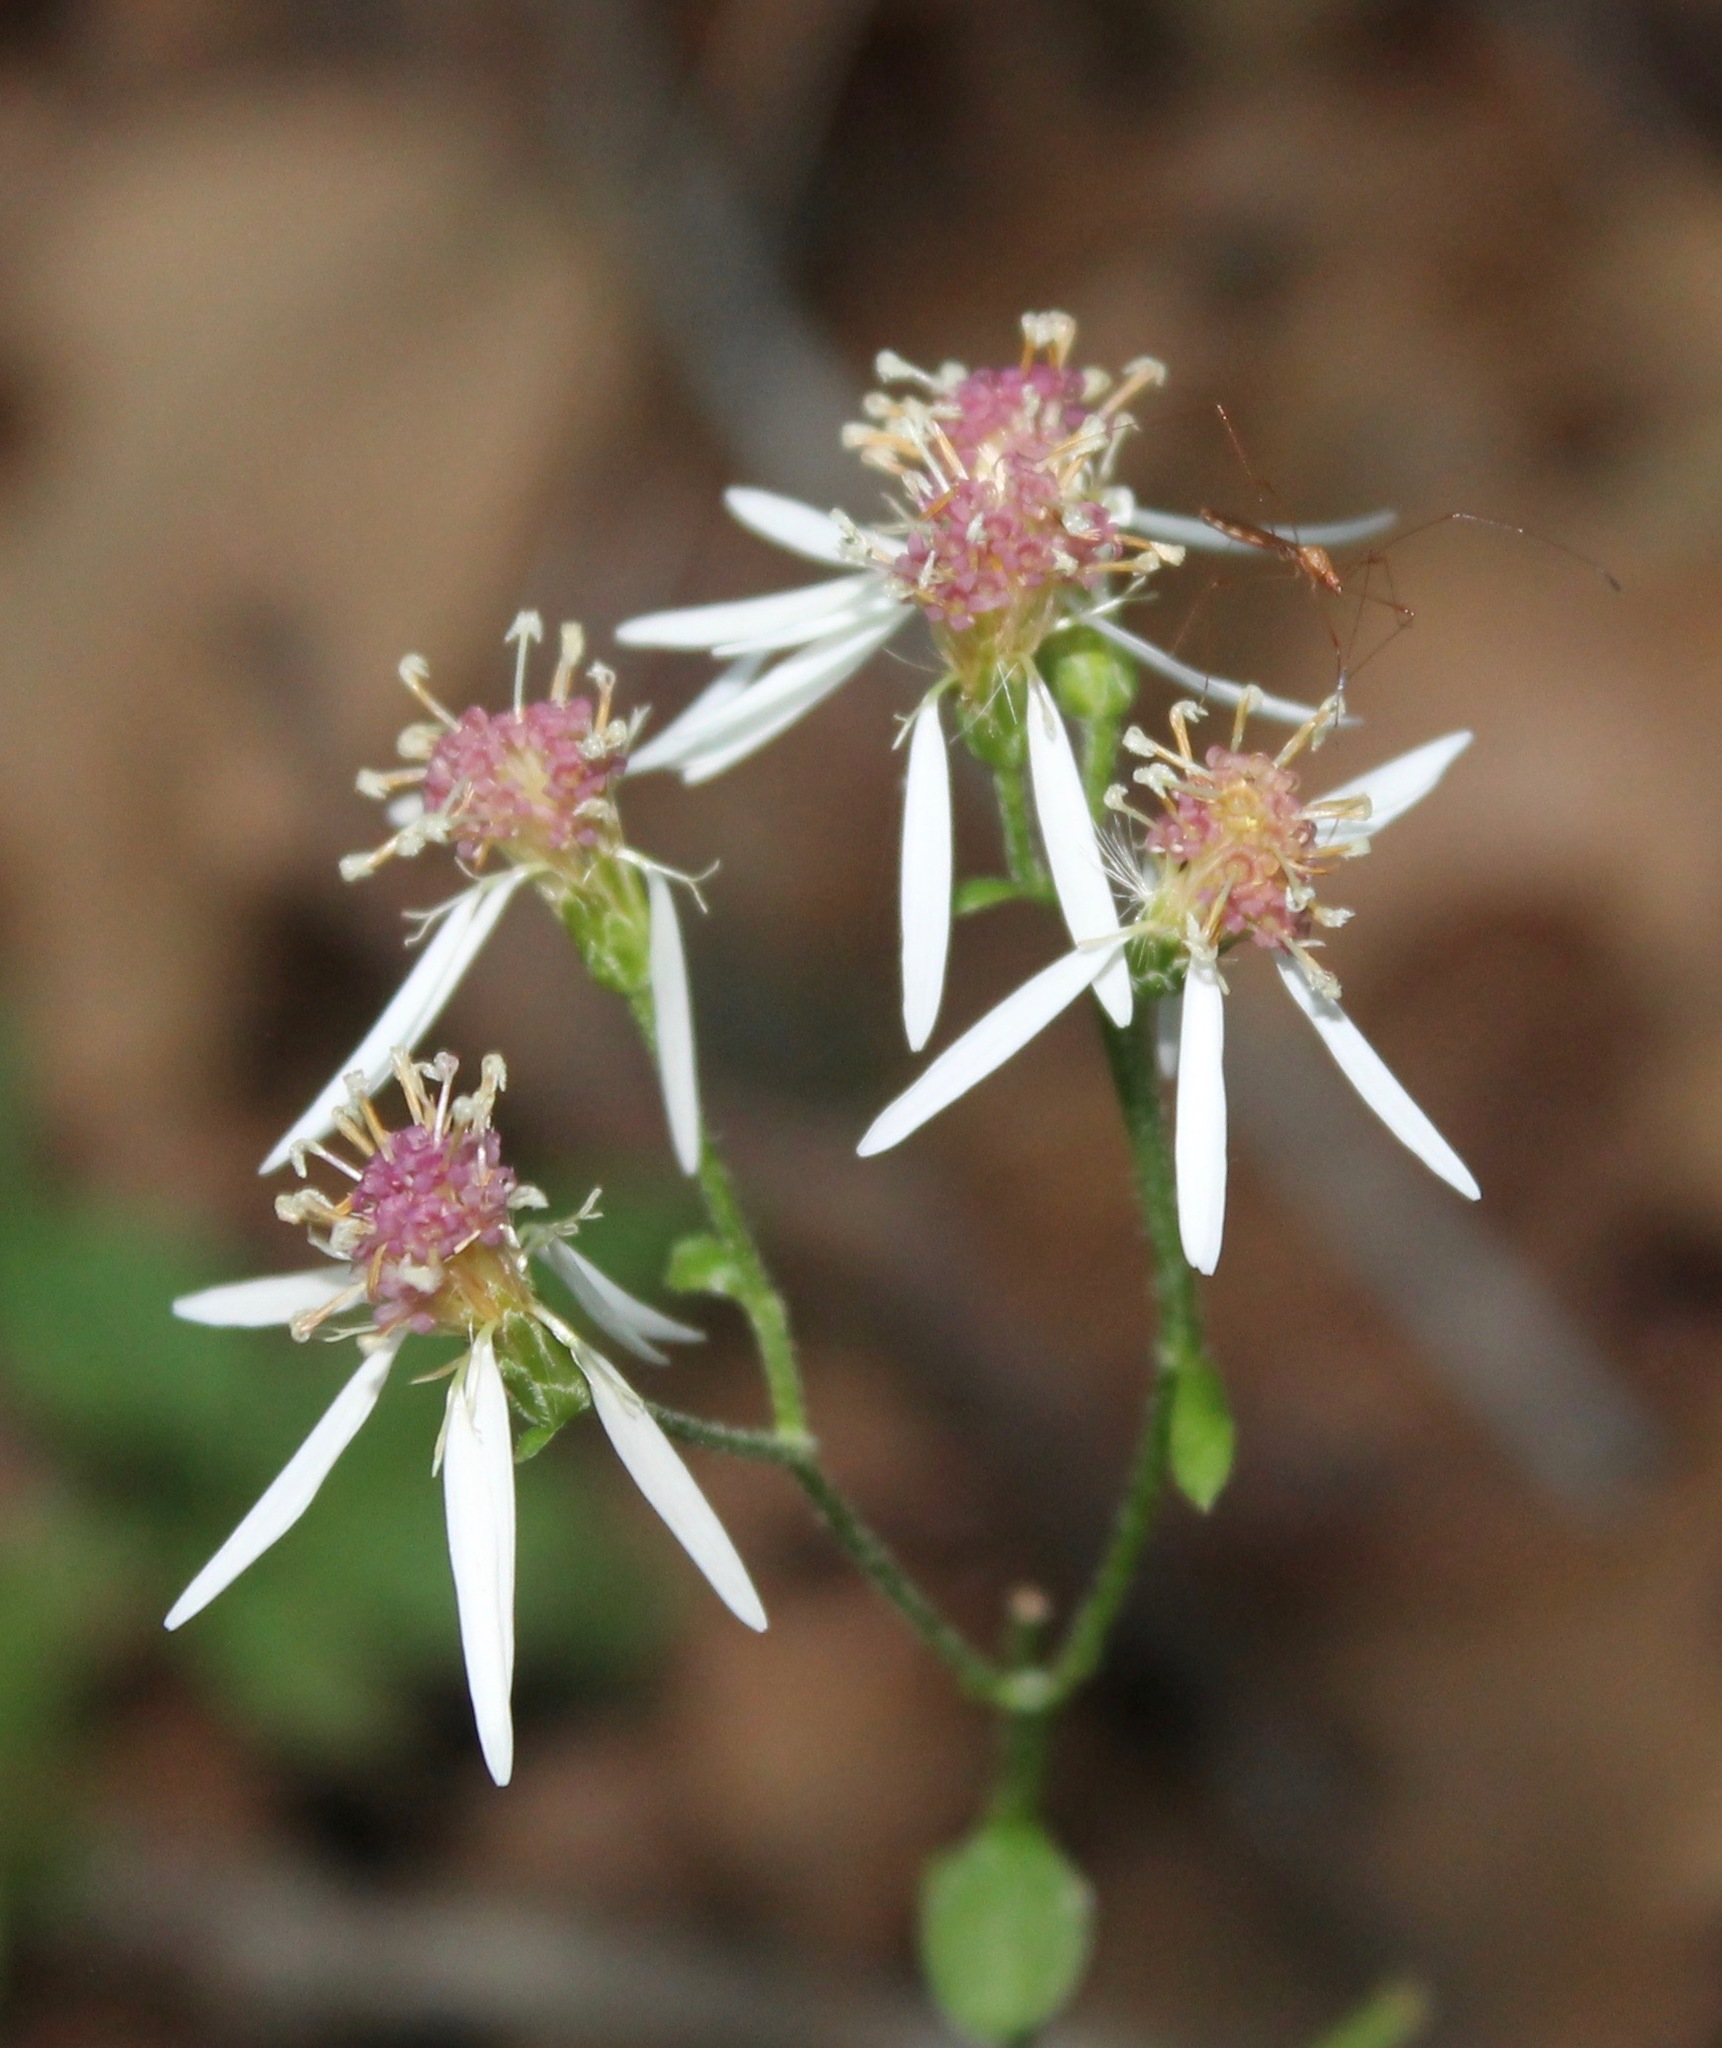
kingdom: Plantae
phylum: Tracheophyta
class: Magnoliopsida
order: Asterales
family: Asteraceae
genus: Eurybia
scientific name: Eurybia divaricata
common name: White wood aster
